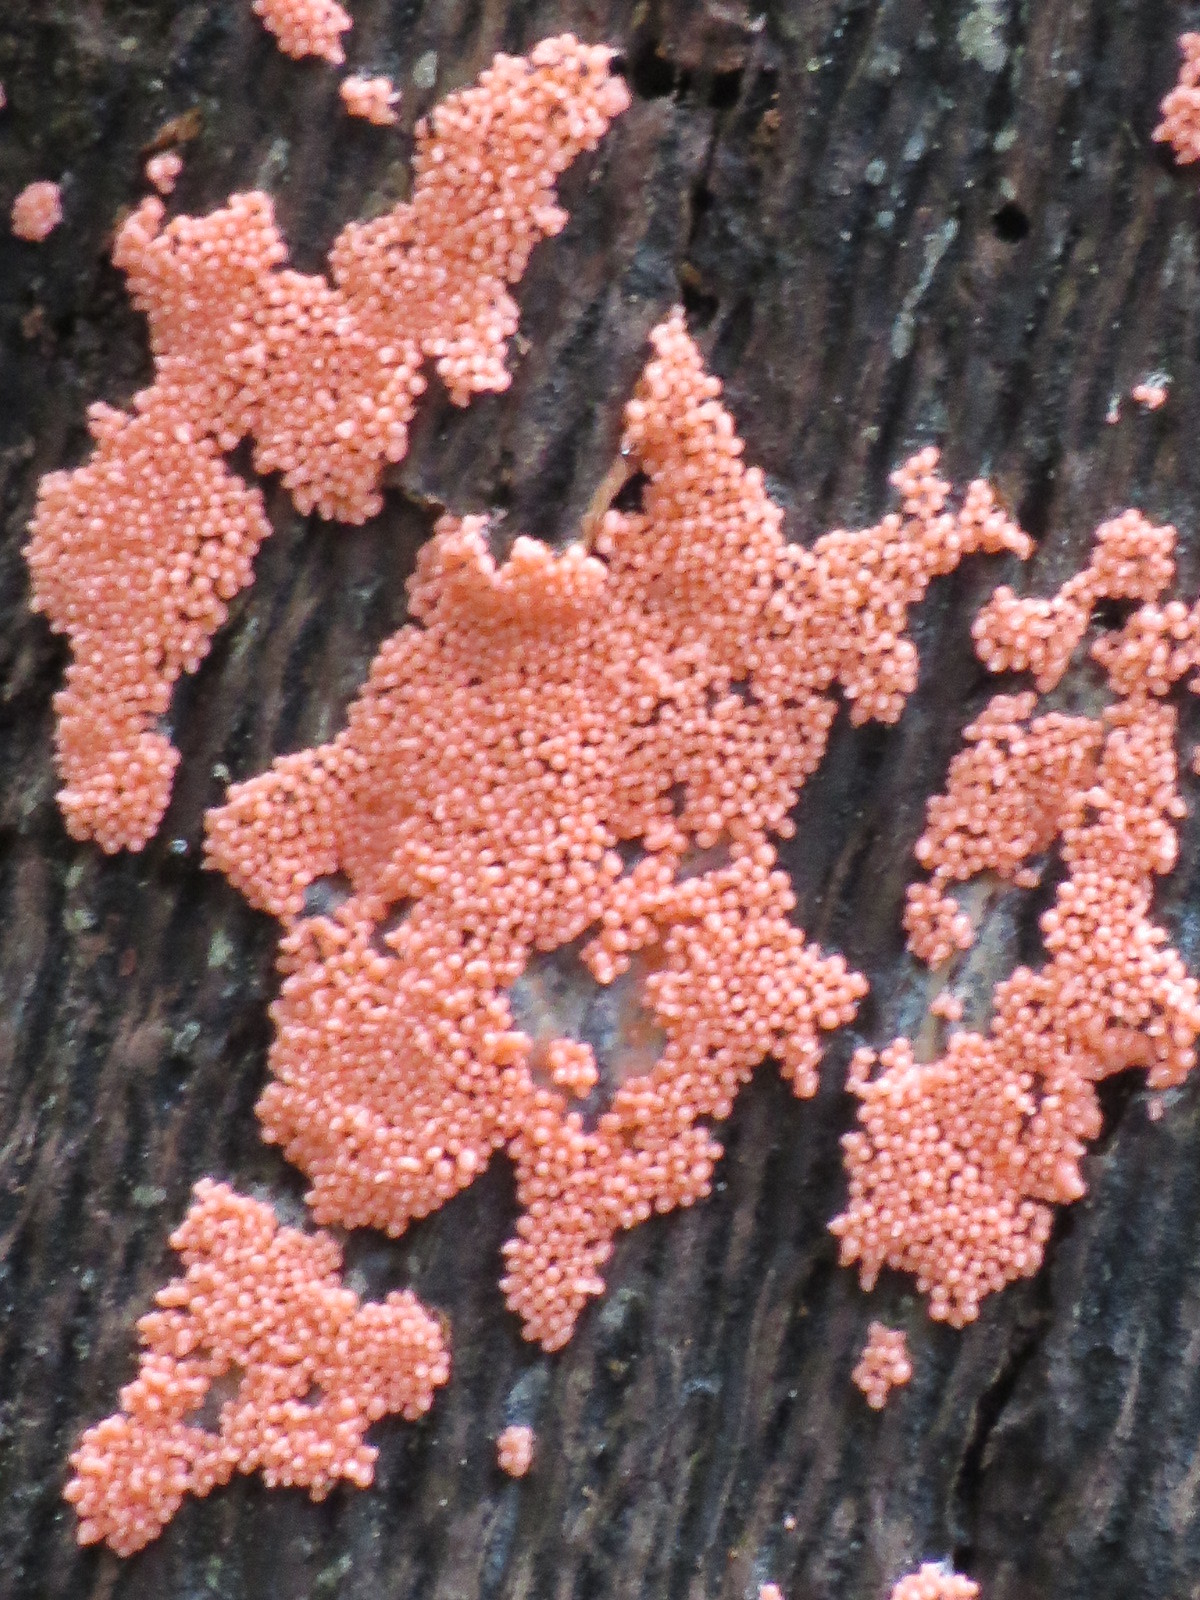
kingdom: Protozoa
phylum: Mycetozoa
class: Myxomycetes
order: Trichiales
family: Arcyriaceae
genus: Arcyria
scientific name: Arcyria ferruginea
